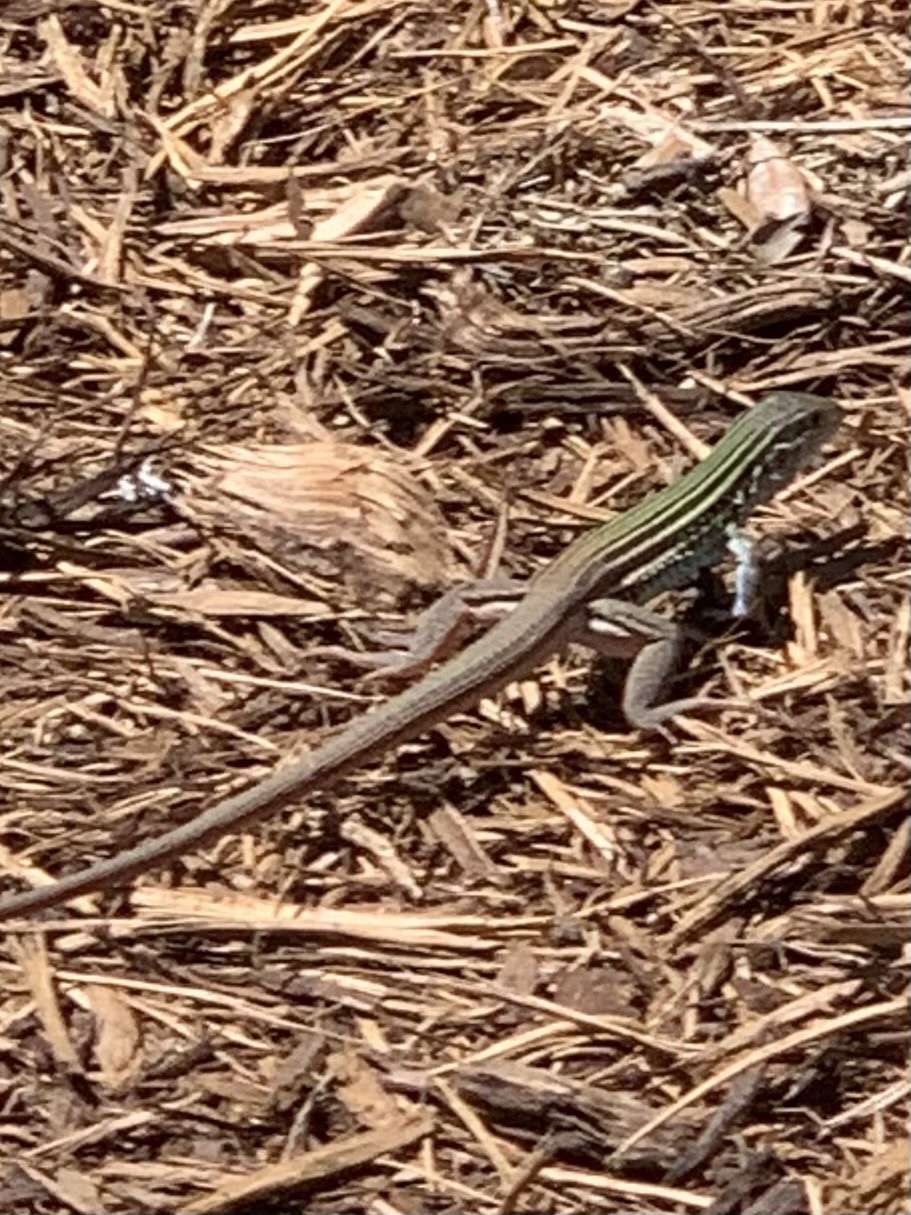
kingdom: Animalia
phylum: Chordata
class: Squamata
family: Teiidae
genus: Aspidoscelis
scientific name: Aspidoscelis gularis
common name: Eastern spotted whiptail
